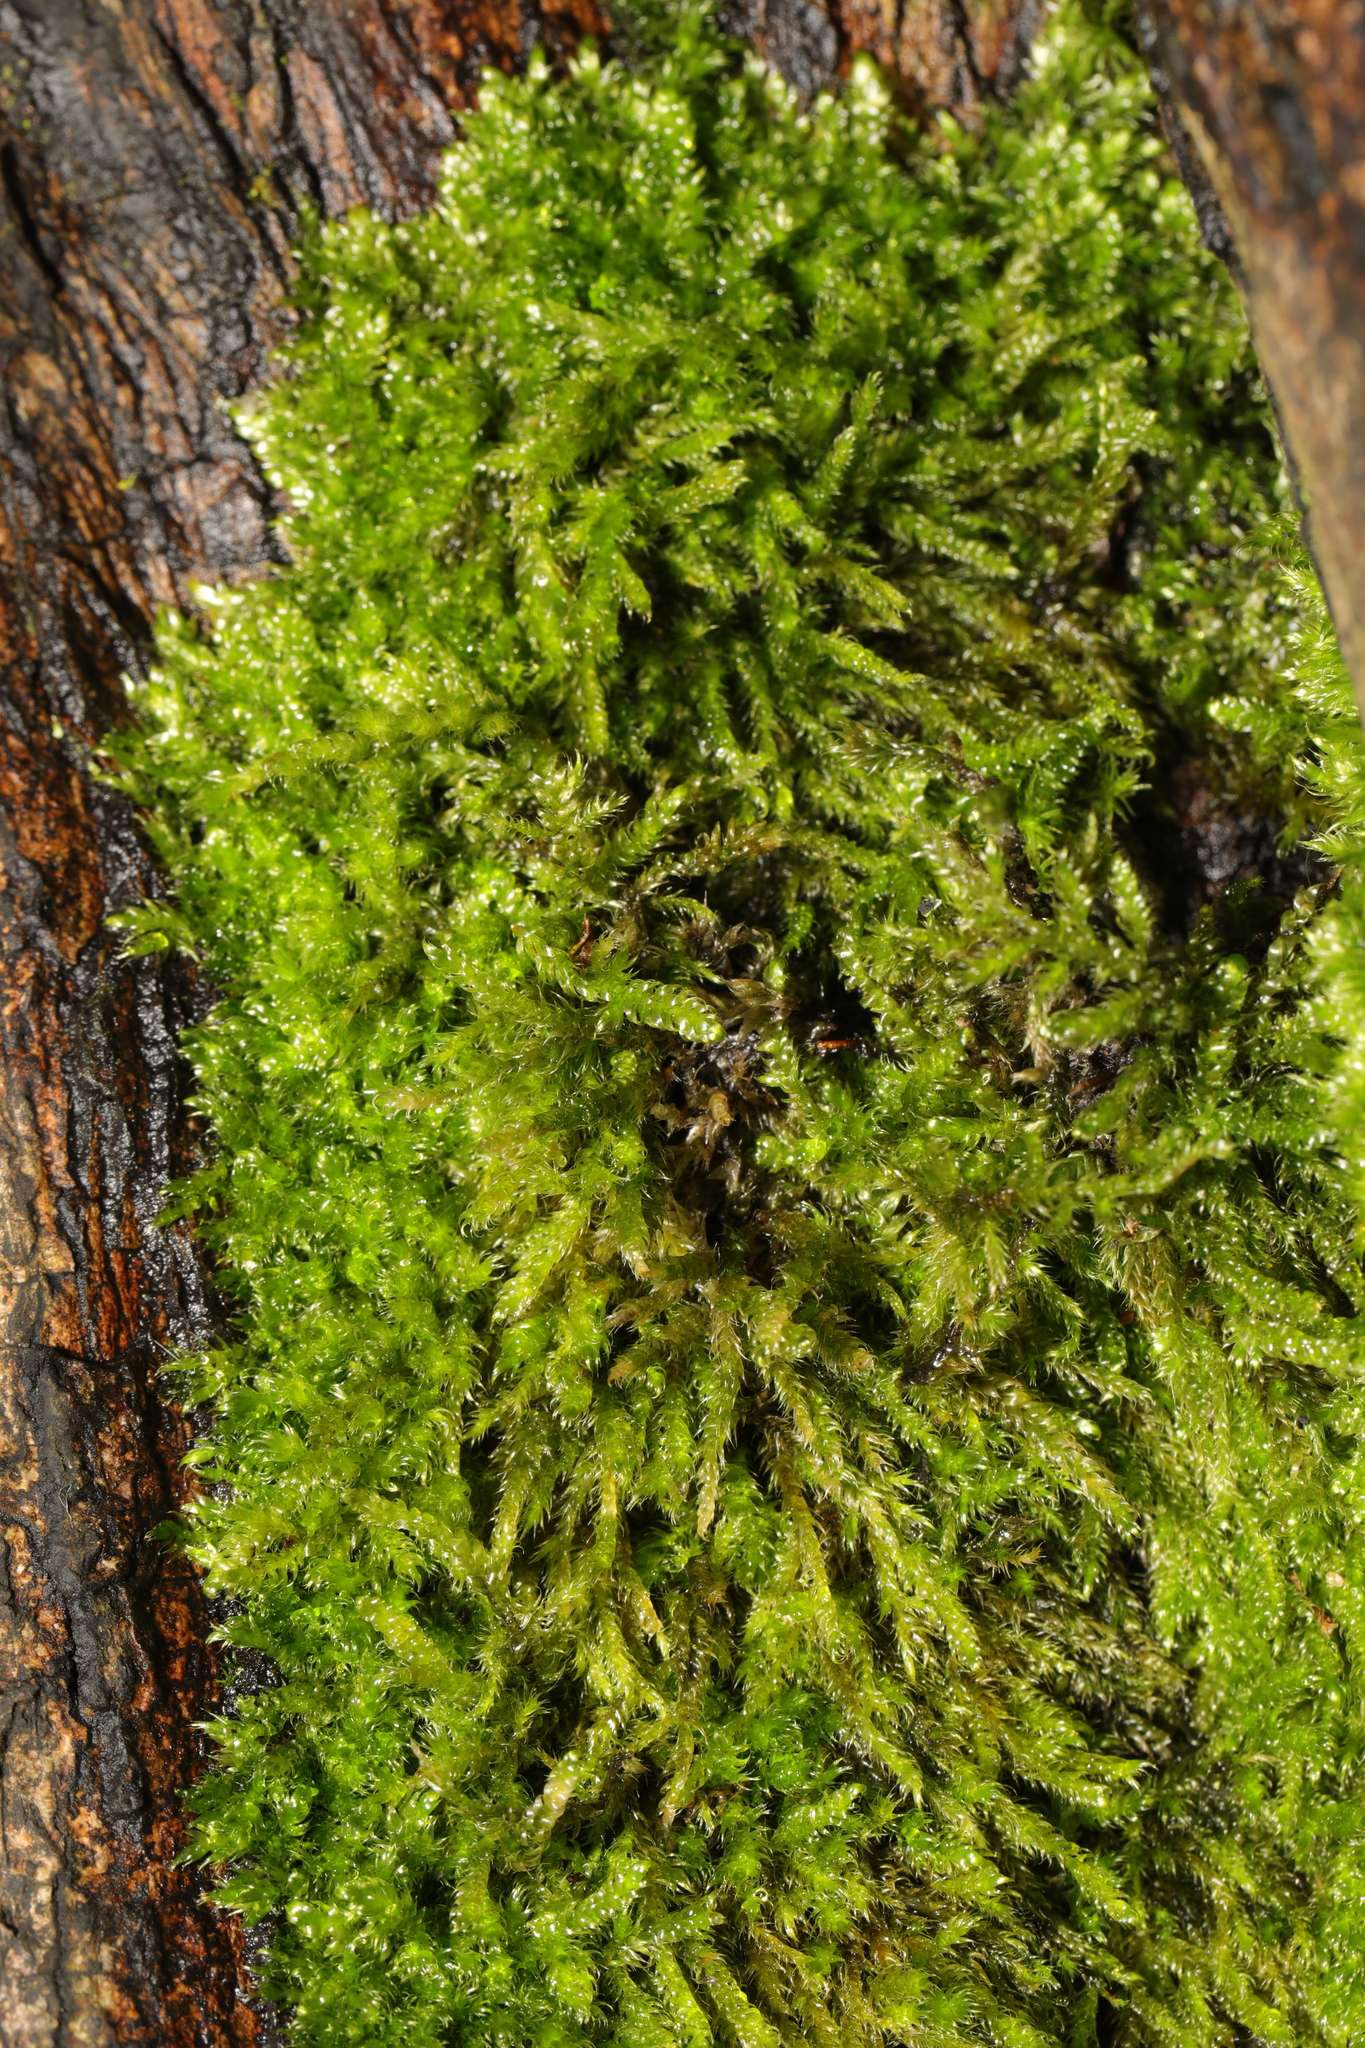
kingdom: Plantae
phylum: Bryophyta
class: Bryopsida
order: Hypnales
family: Hypnaceae
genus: Hypnum
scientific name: Hypnum cupressiforme
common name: Cypress-leaved plait-moss
